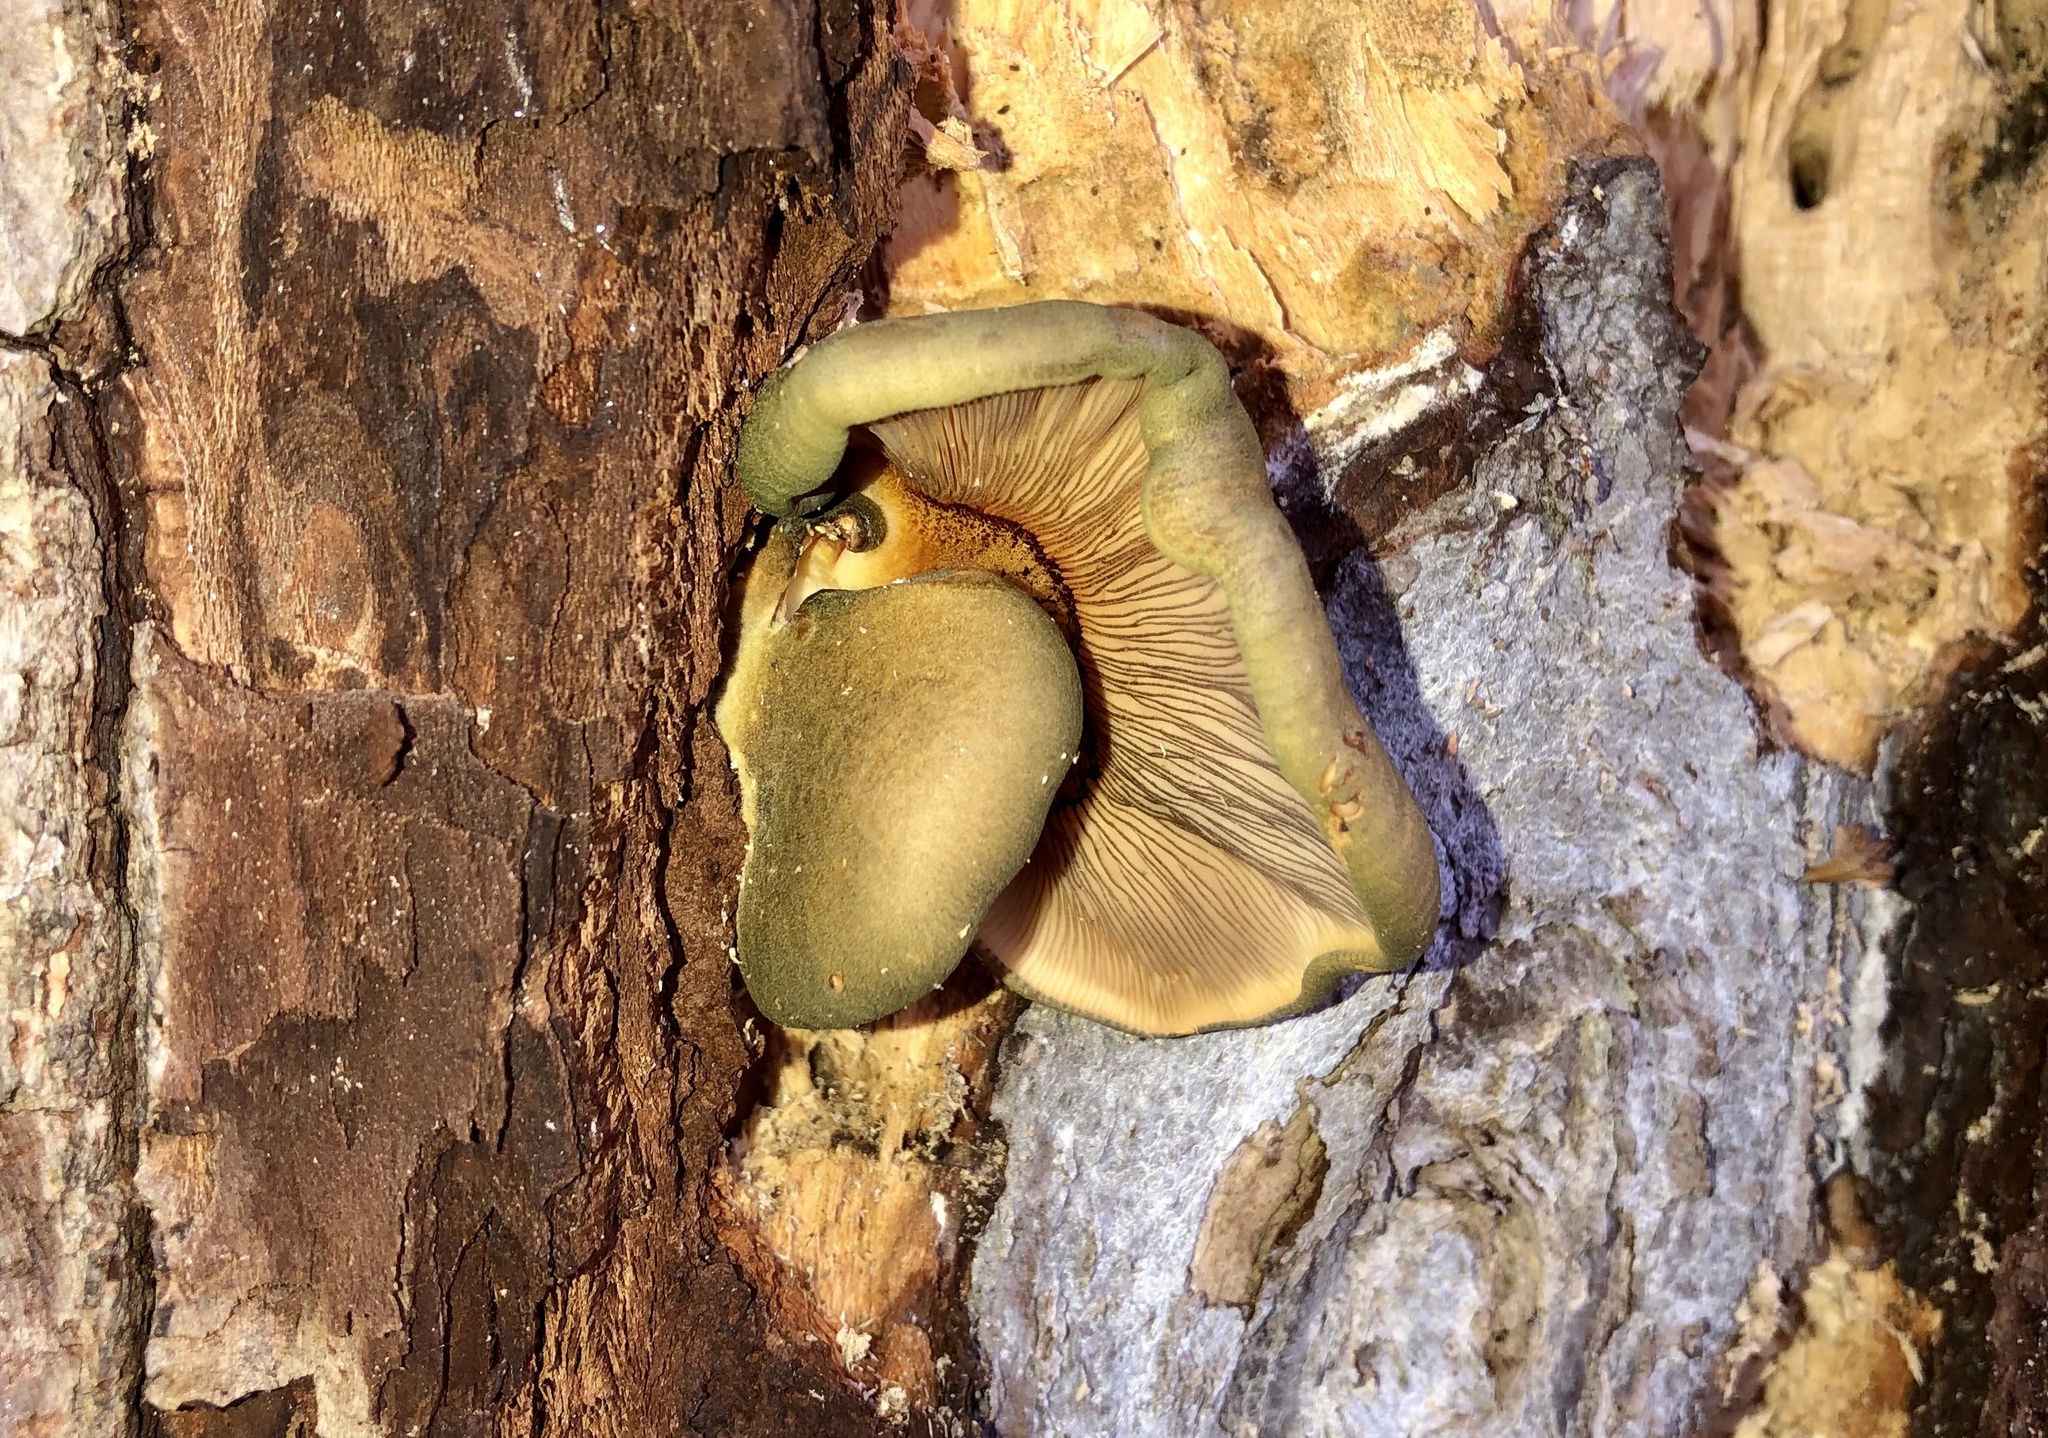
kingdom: Fungi
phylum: Basidiomycota
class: Agaricomycetes
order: Agaricales
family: Sarcomyxaceae
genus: Sarcomyxa
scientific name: Sarcomyxa serotina
